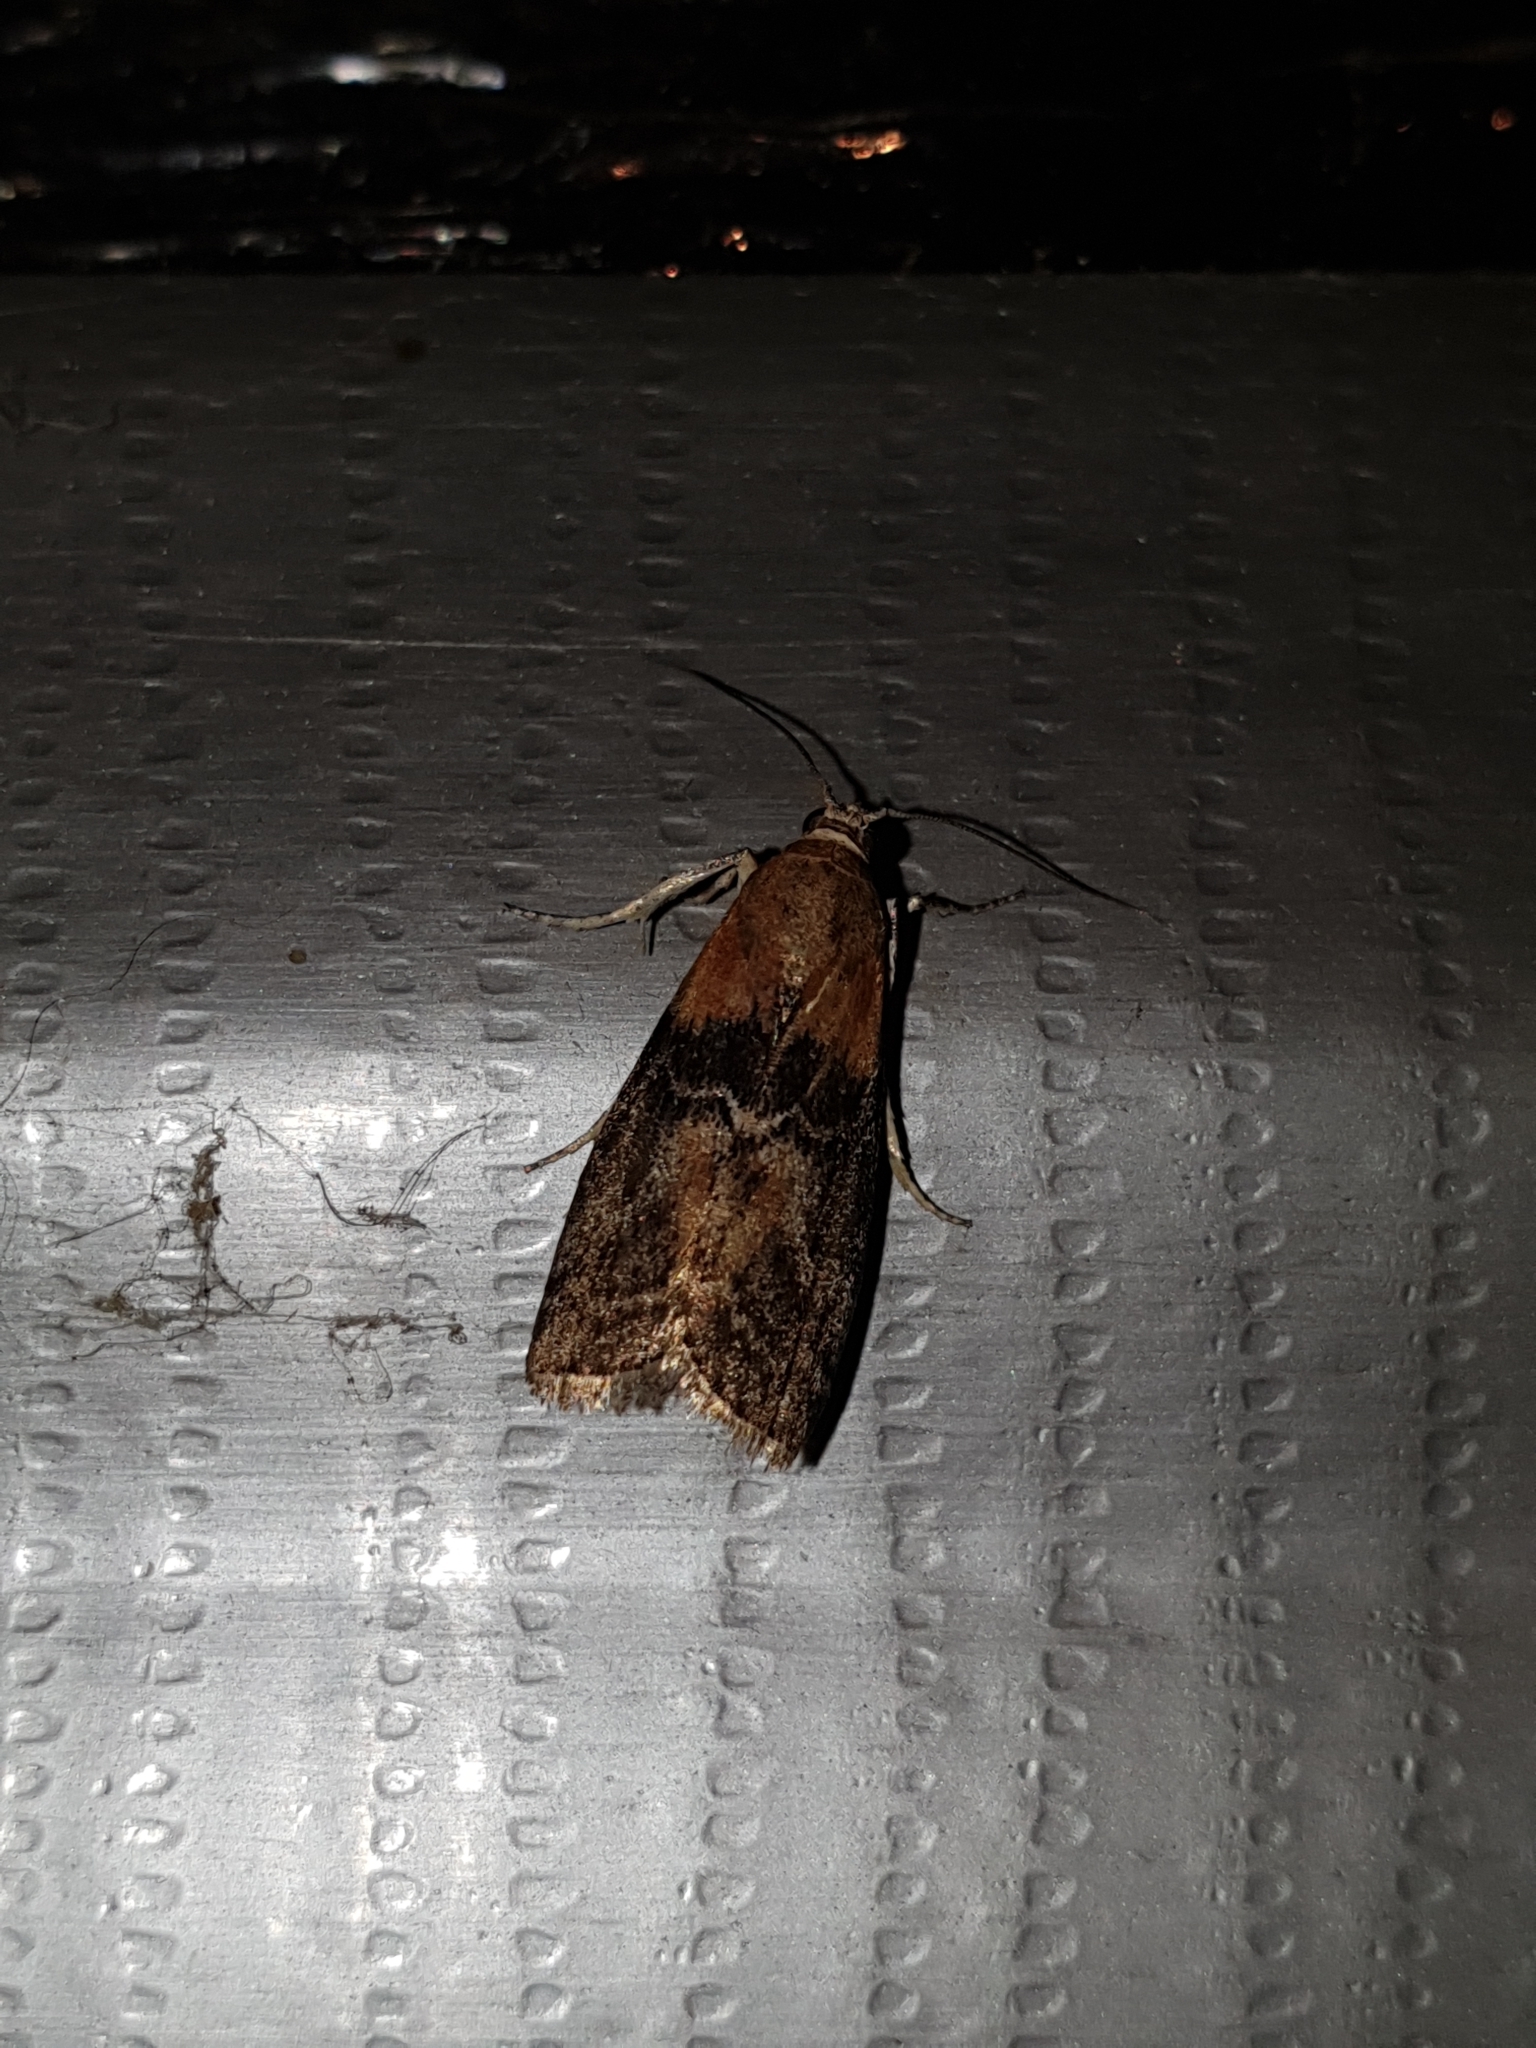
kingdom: Animalia
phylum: Arthropoda
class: Insecta
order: Lepidoptera
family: Pyralidae
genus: Sciota
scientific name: Sciota adelphella
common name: Willow knot-horn
